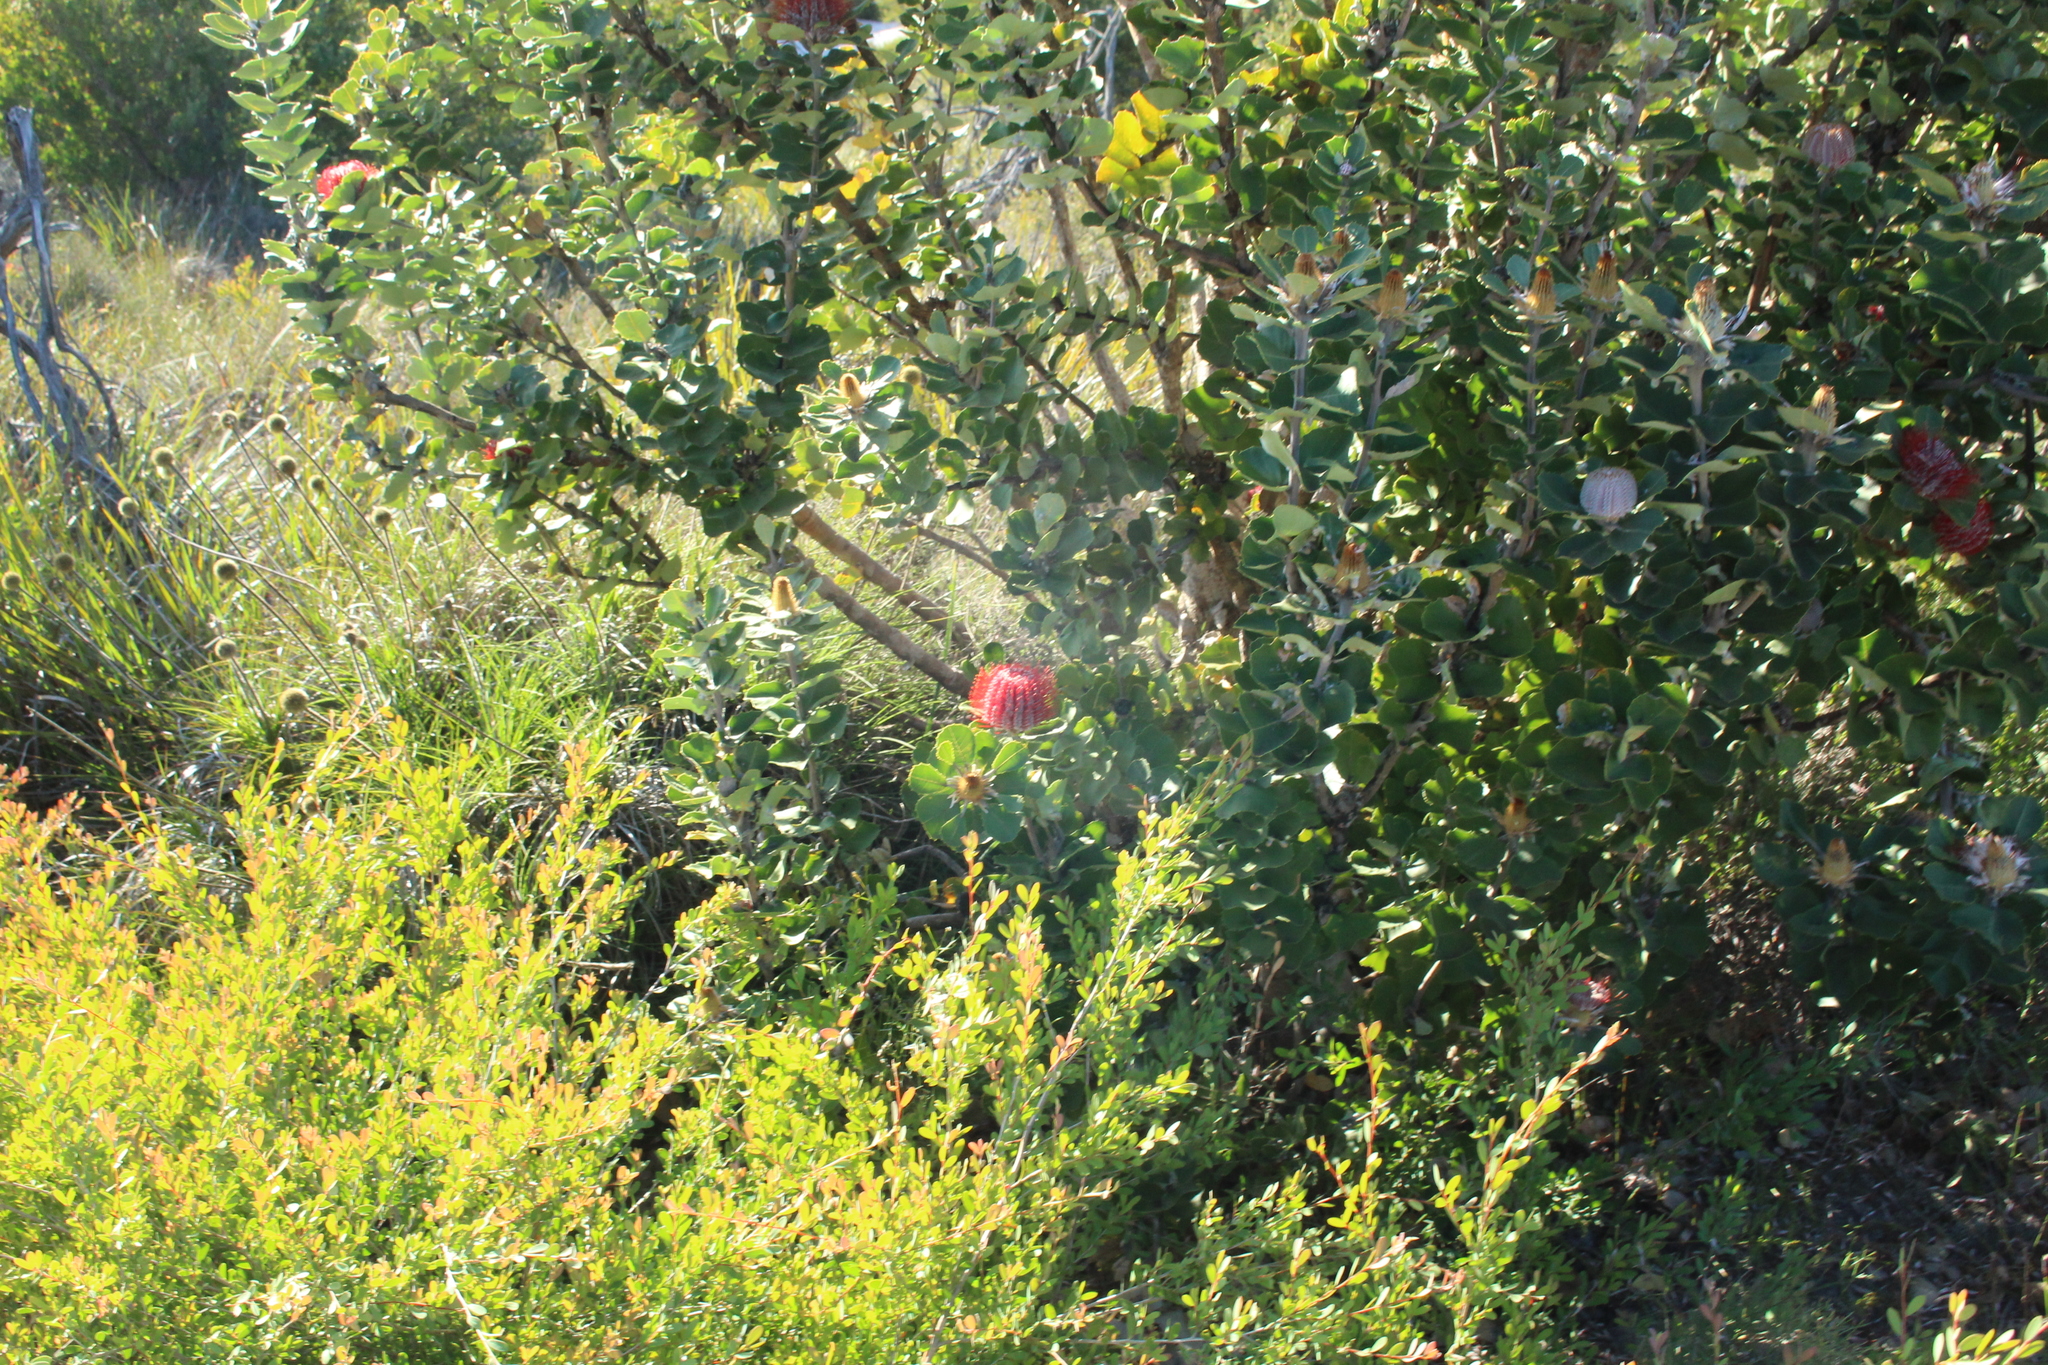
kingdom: Plantae
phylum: Tracheophyta
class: Magnoliopsida
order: Proteales
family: Proteaceae
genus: Banksia
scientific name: Banksia coccinea
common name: Scarlet banksia
